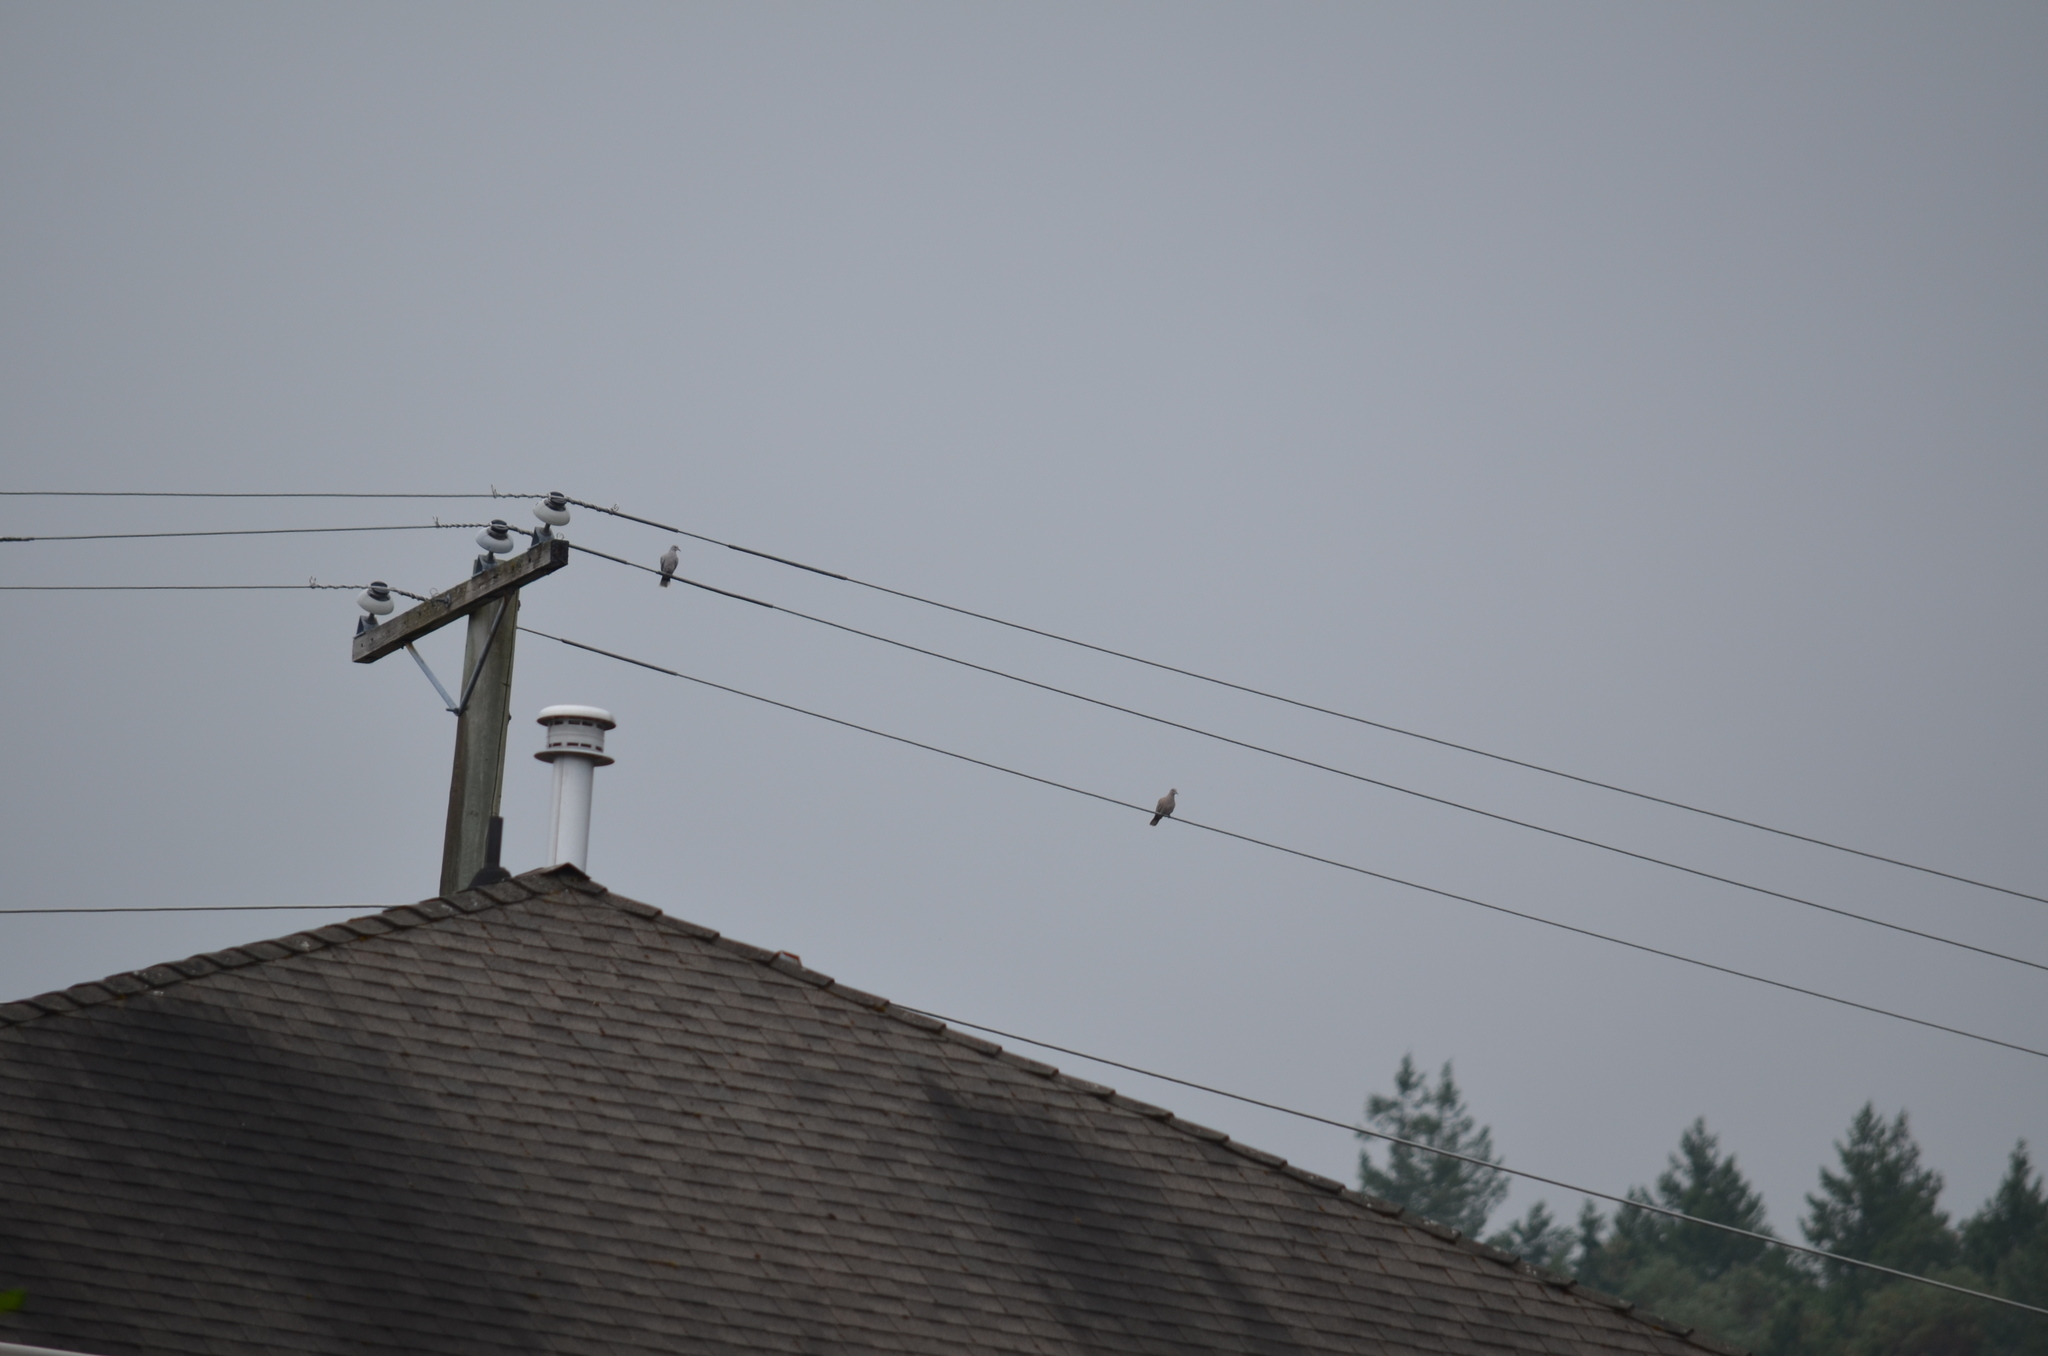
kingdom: Animalia
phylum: Chordata
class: Aves
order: Columbiformes
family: Columbidae
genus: Streptopelia
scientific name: Streptopelia decaocto
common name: Eurasian collared dove
